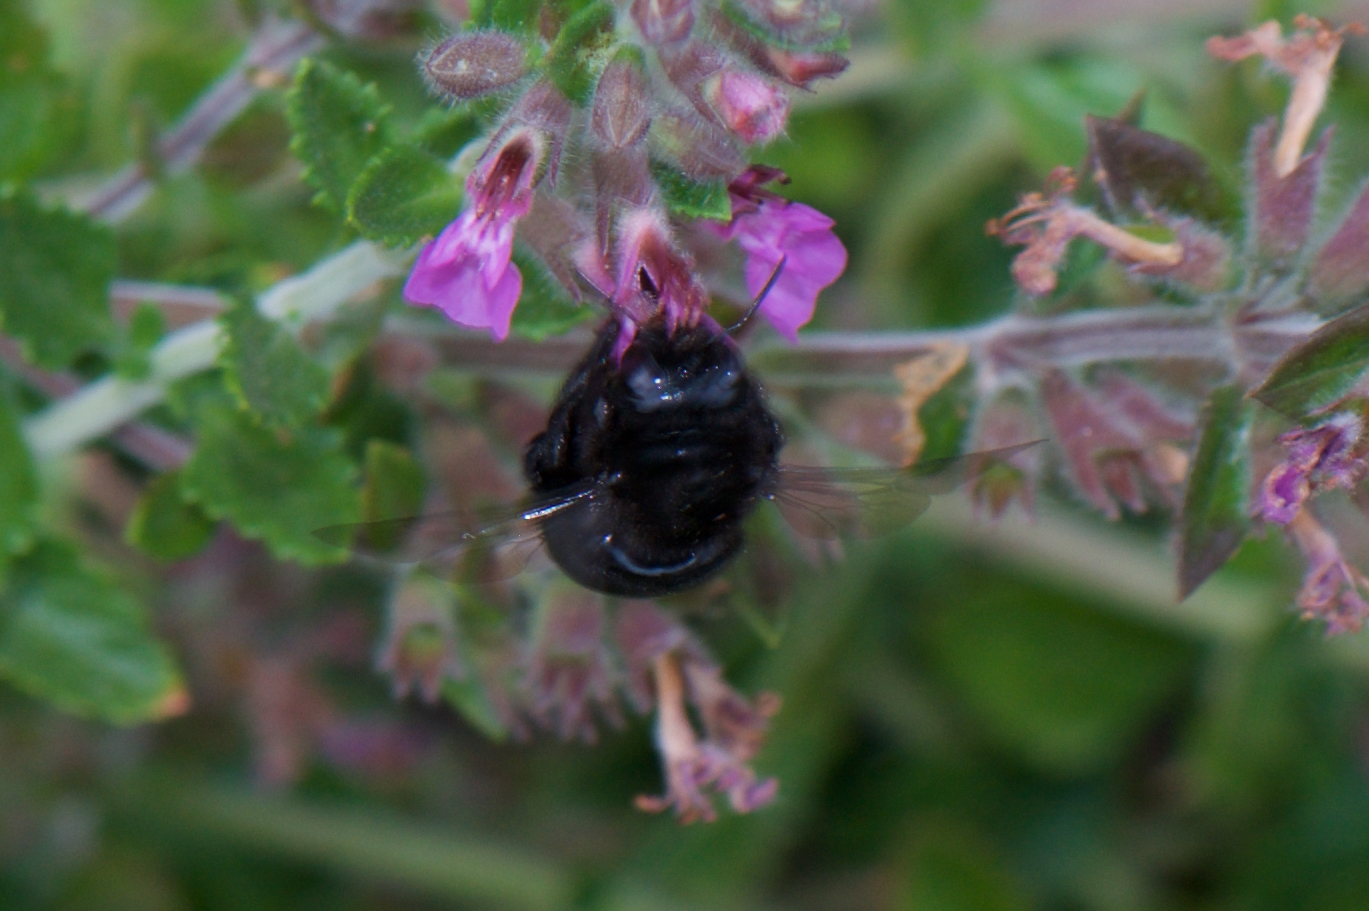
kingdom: Animalia
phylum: Arthropoda
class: Insecta
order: Hymenoptera
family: Apidae
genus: Xylocopa
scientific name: Xylocopa tabaniformis
